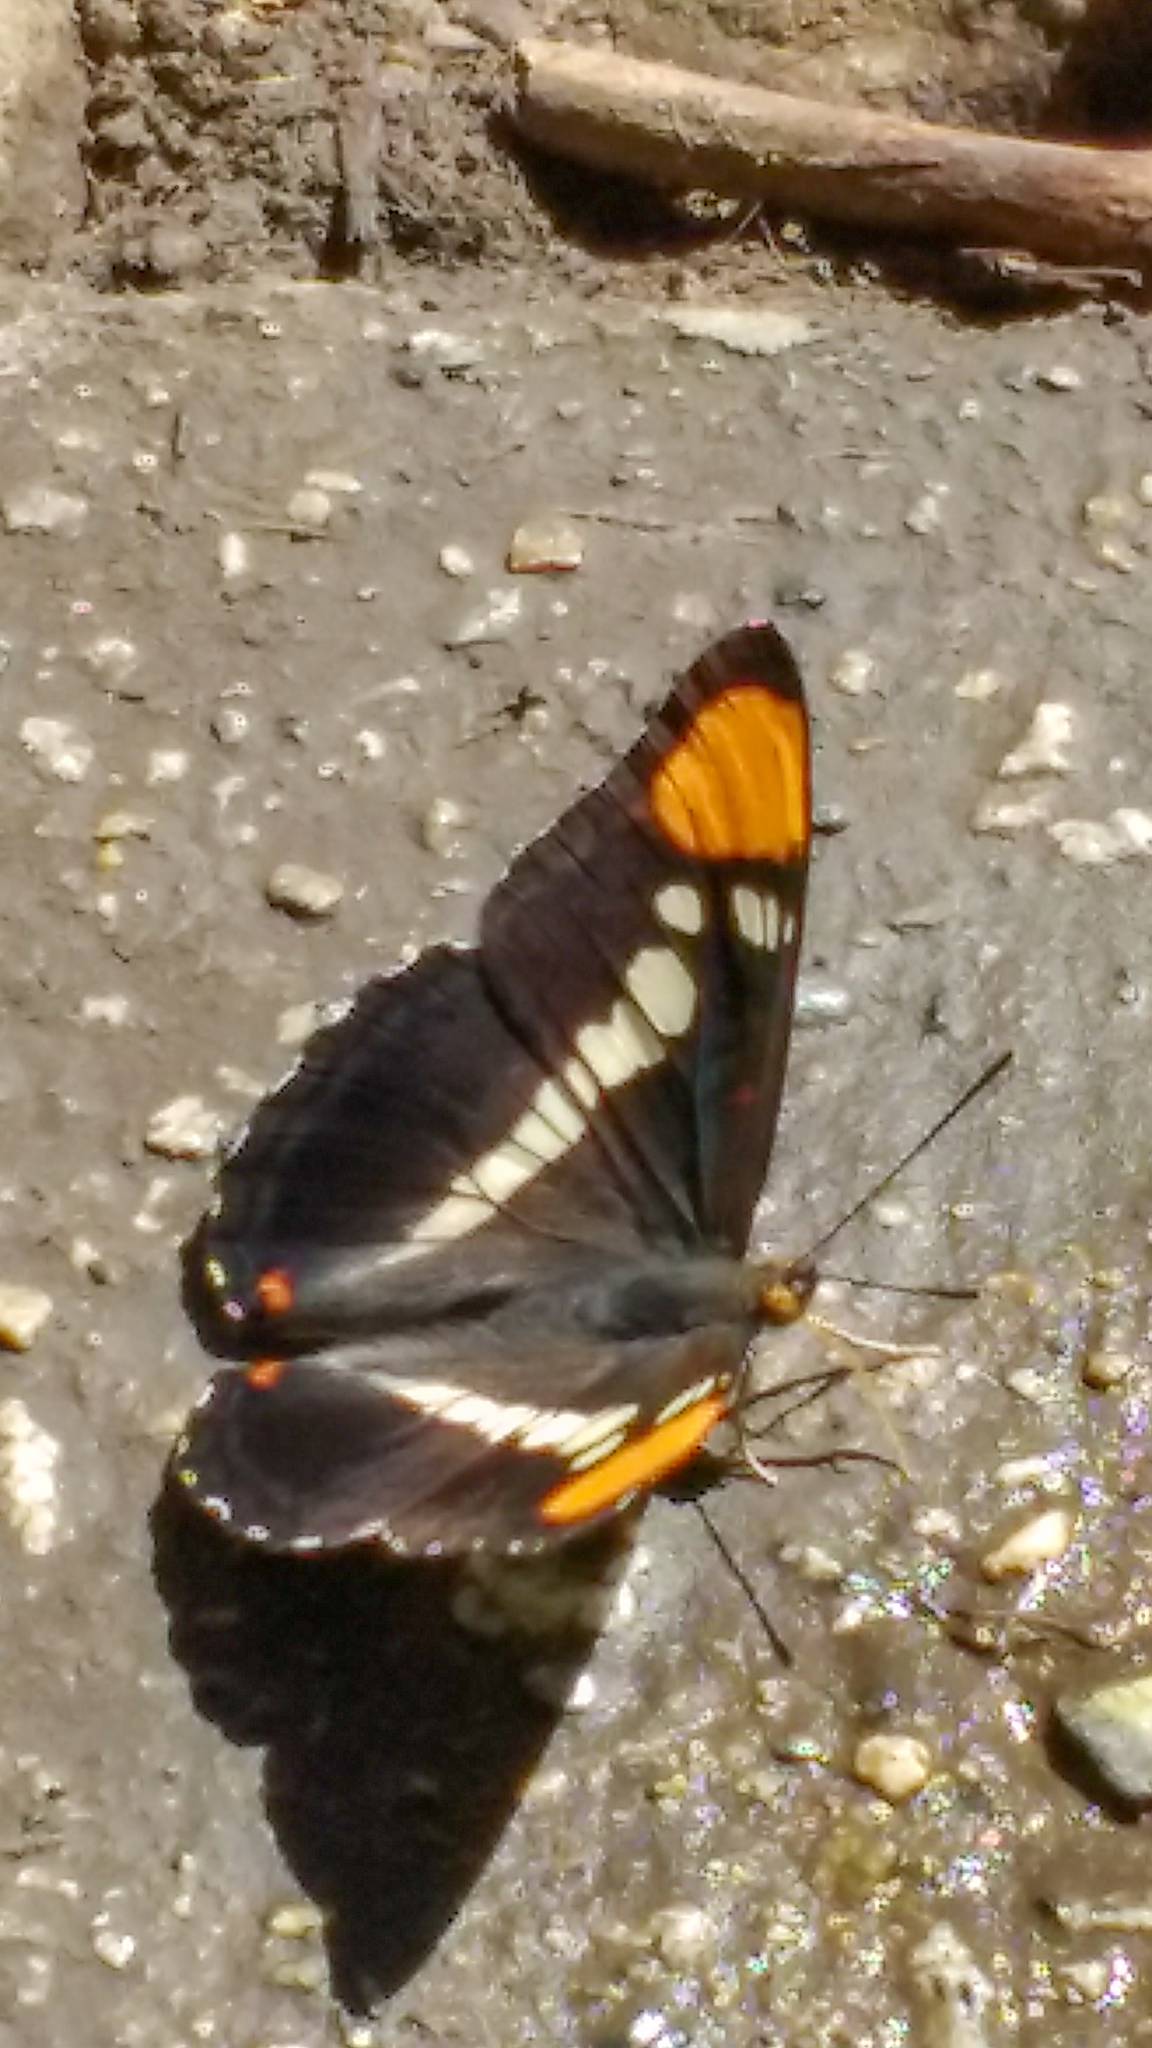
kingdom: Animalia
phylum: Arthropoda
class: Insecta
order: Lepidoptera
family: Nymphalidae
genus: Limenitis
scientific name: Limenitis bredowii
